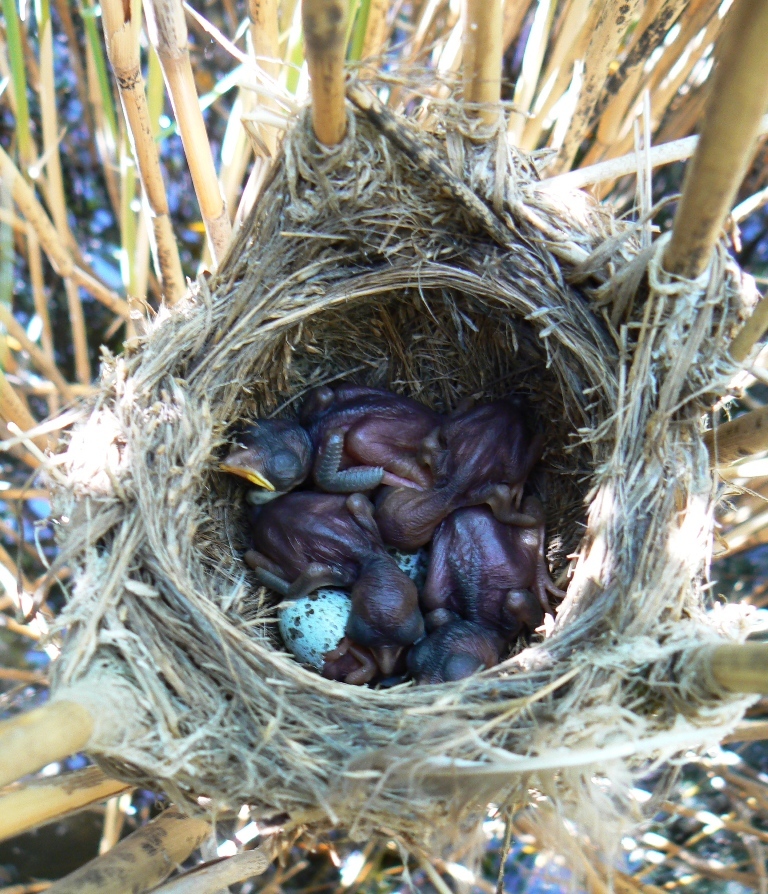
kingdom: Animalia
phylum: Chordata
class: Aves
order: Passeriformes
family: Acrocephalidae
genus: Acrocephalus
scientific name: Acrocephalus arundinaceus
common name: Great reed warbler
